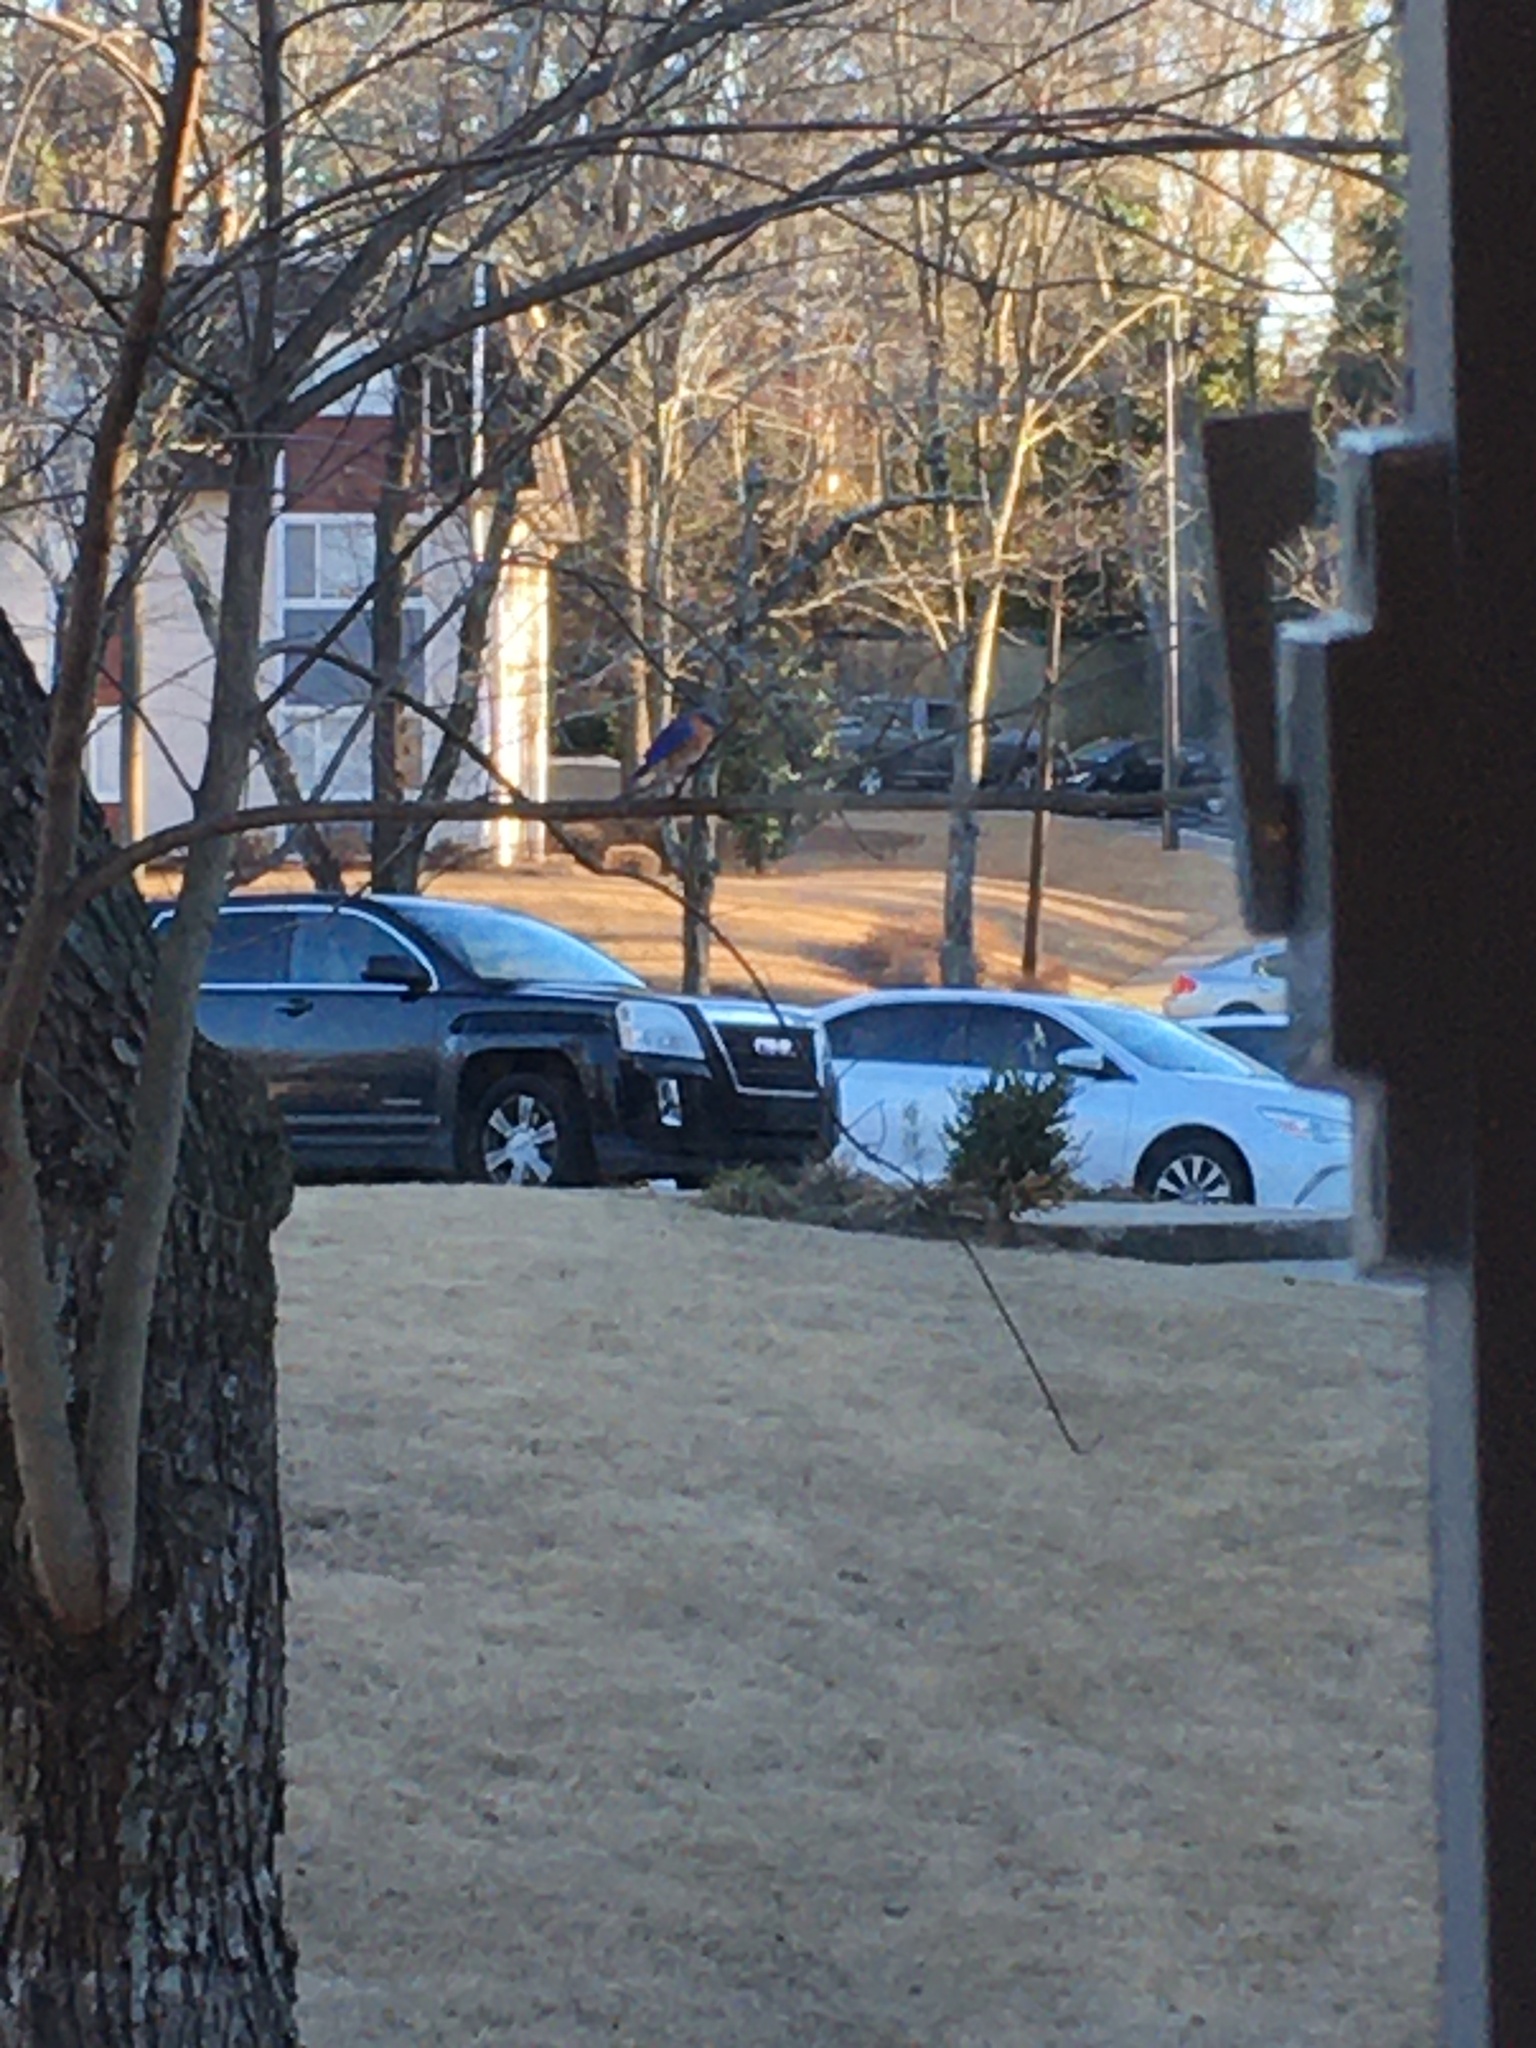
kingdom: Animalia
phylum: Chordata
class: Aves
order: Passeriformes
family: Turdidae
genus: Sialia
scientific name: Sialia sialis
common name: Eastern bluebird
